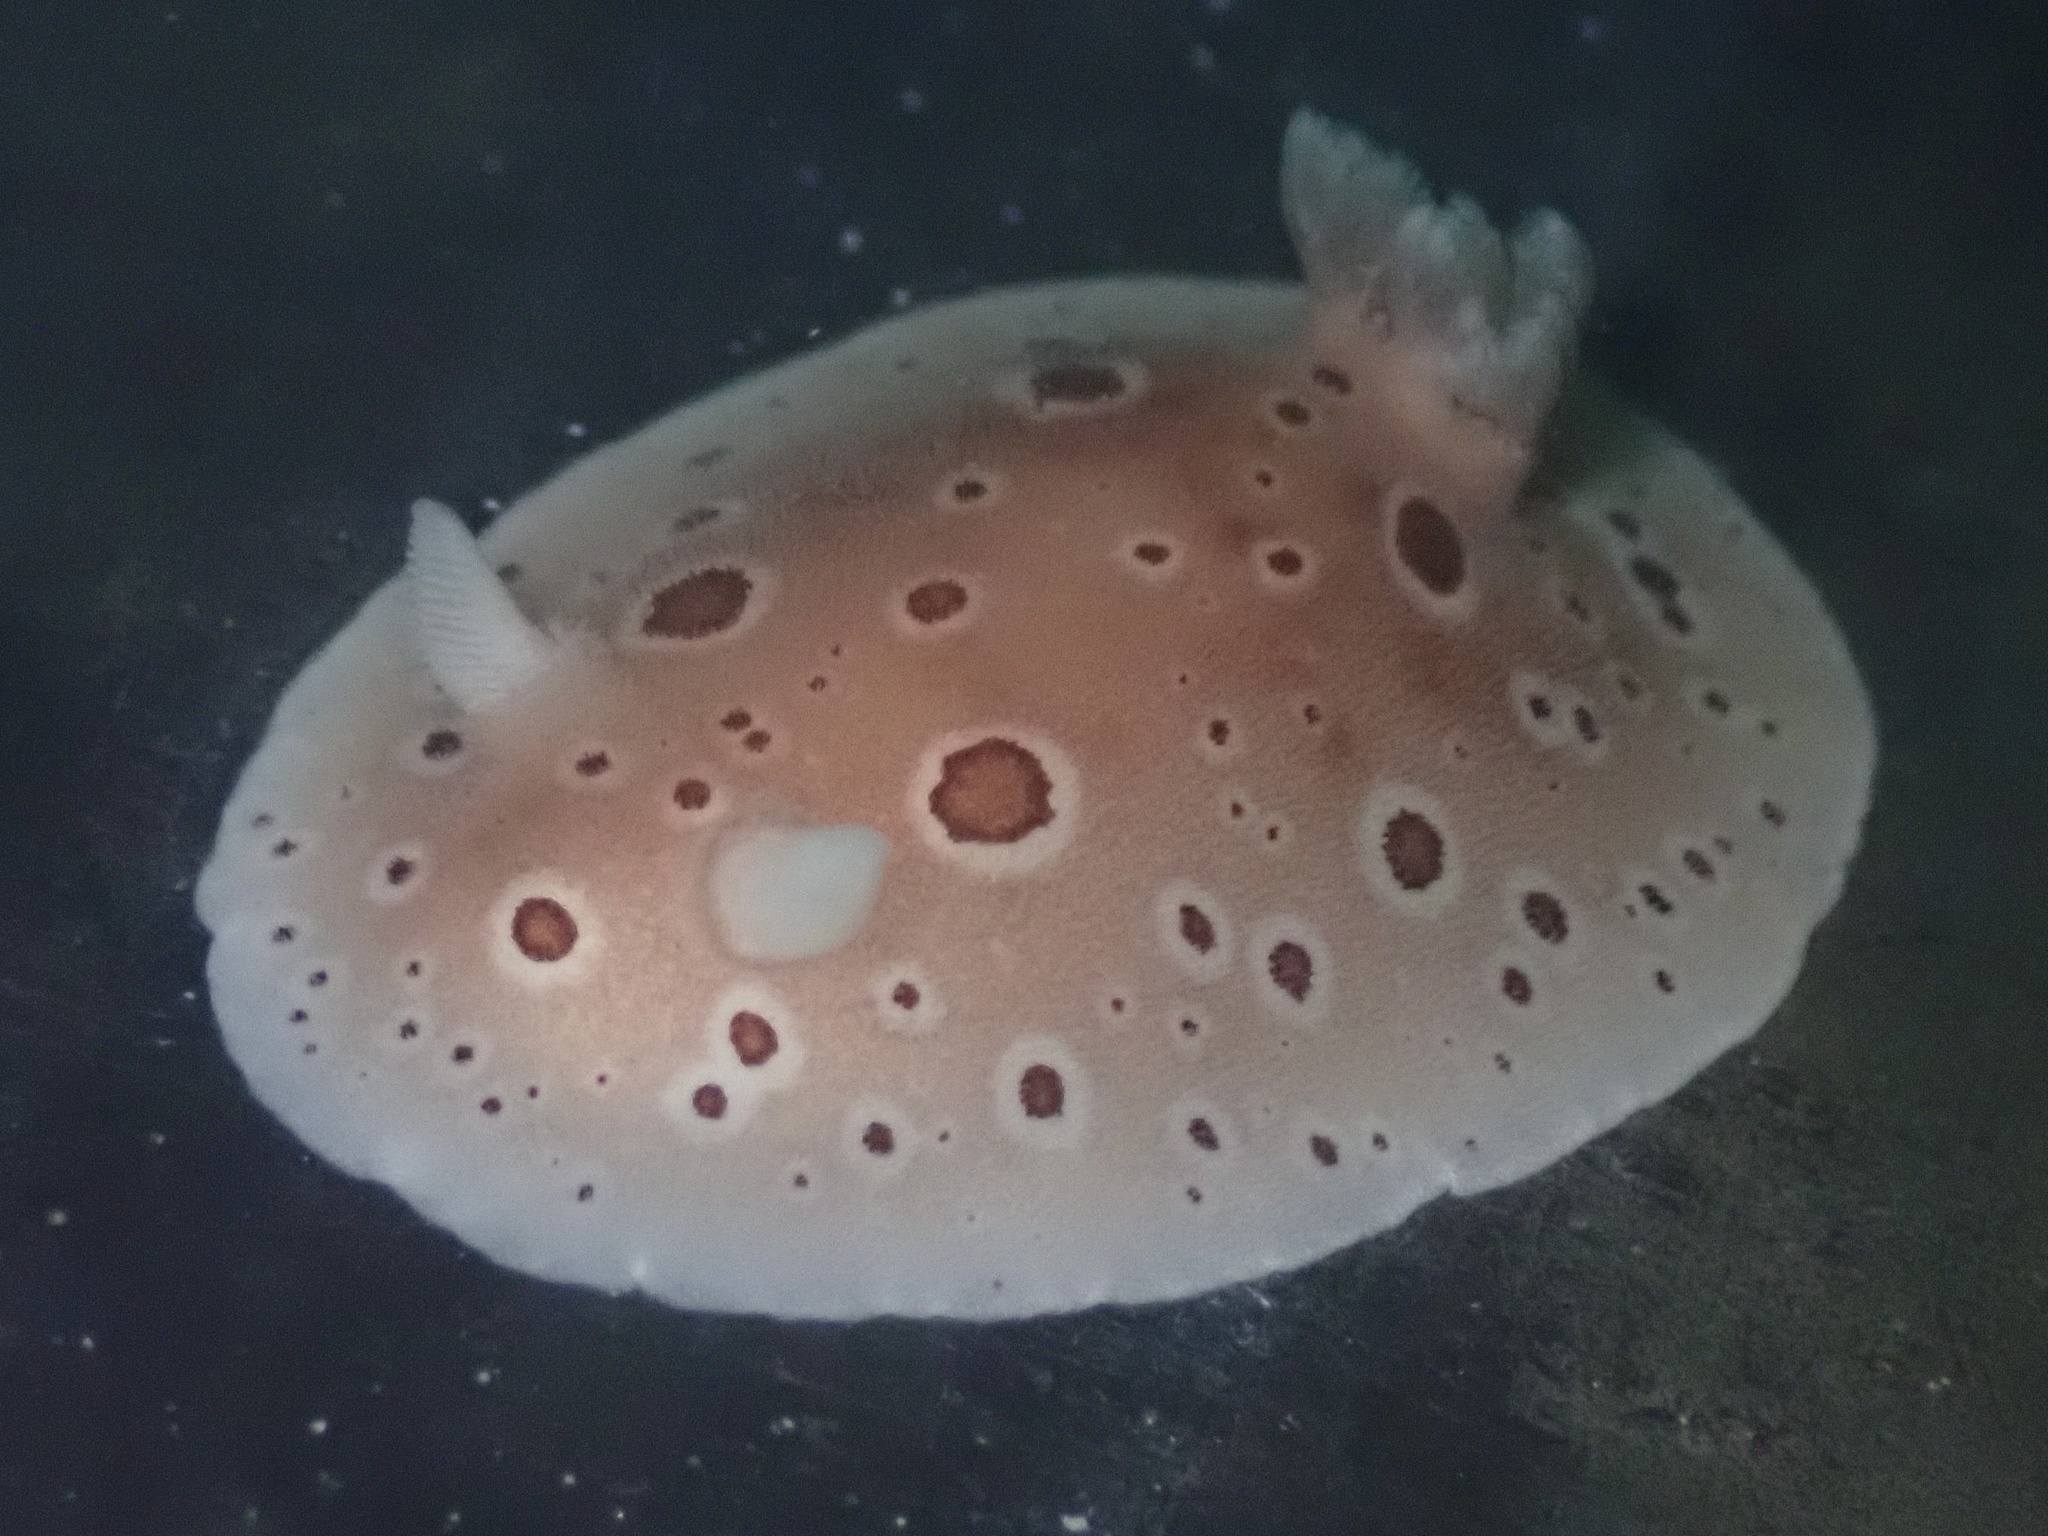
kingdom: Animalia
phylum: Mollusca
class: Gastropoda
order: Nudibranchia
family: Discodorididae
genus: Diaulula
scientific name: Diaulula odonoghuei
